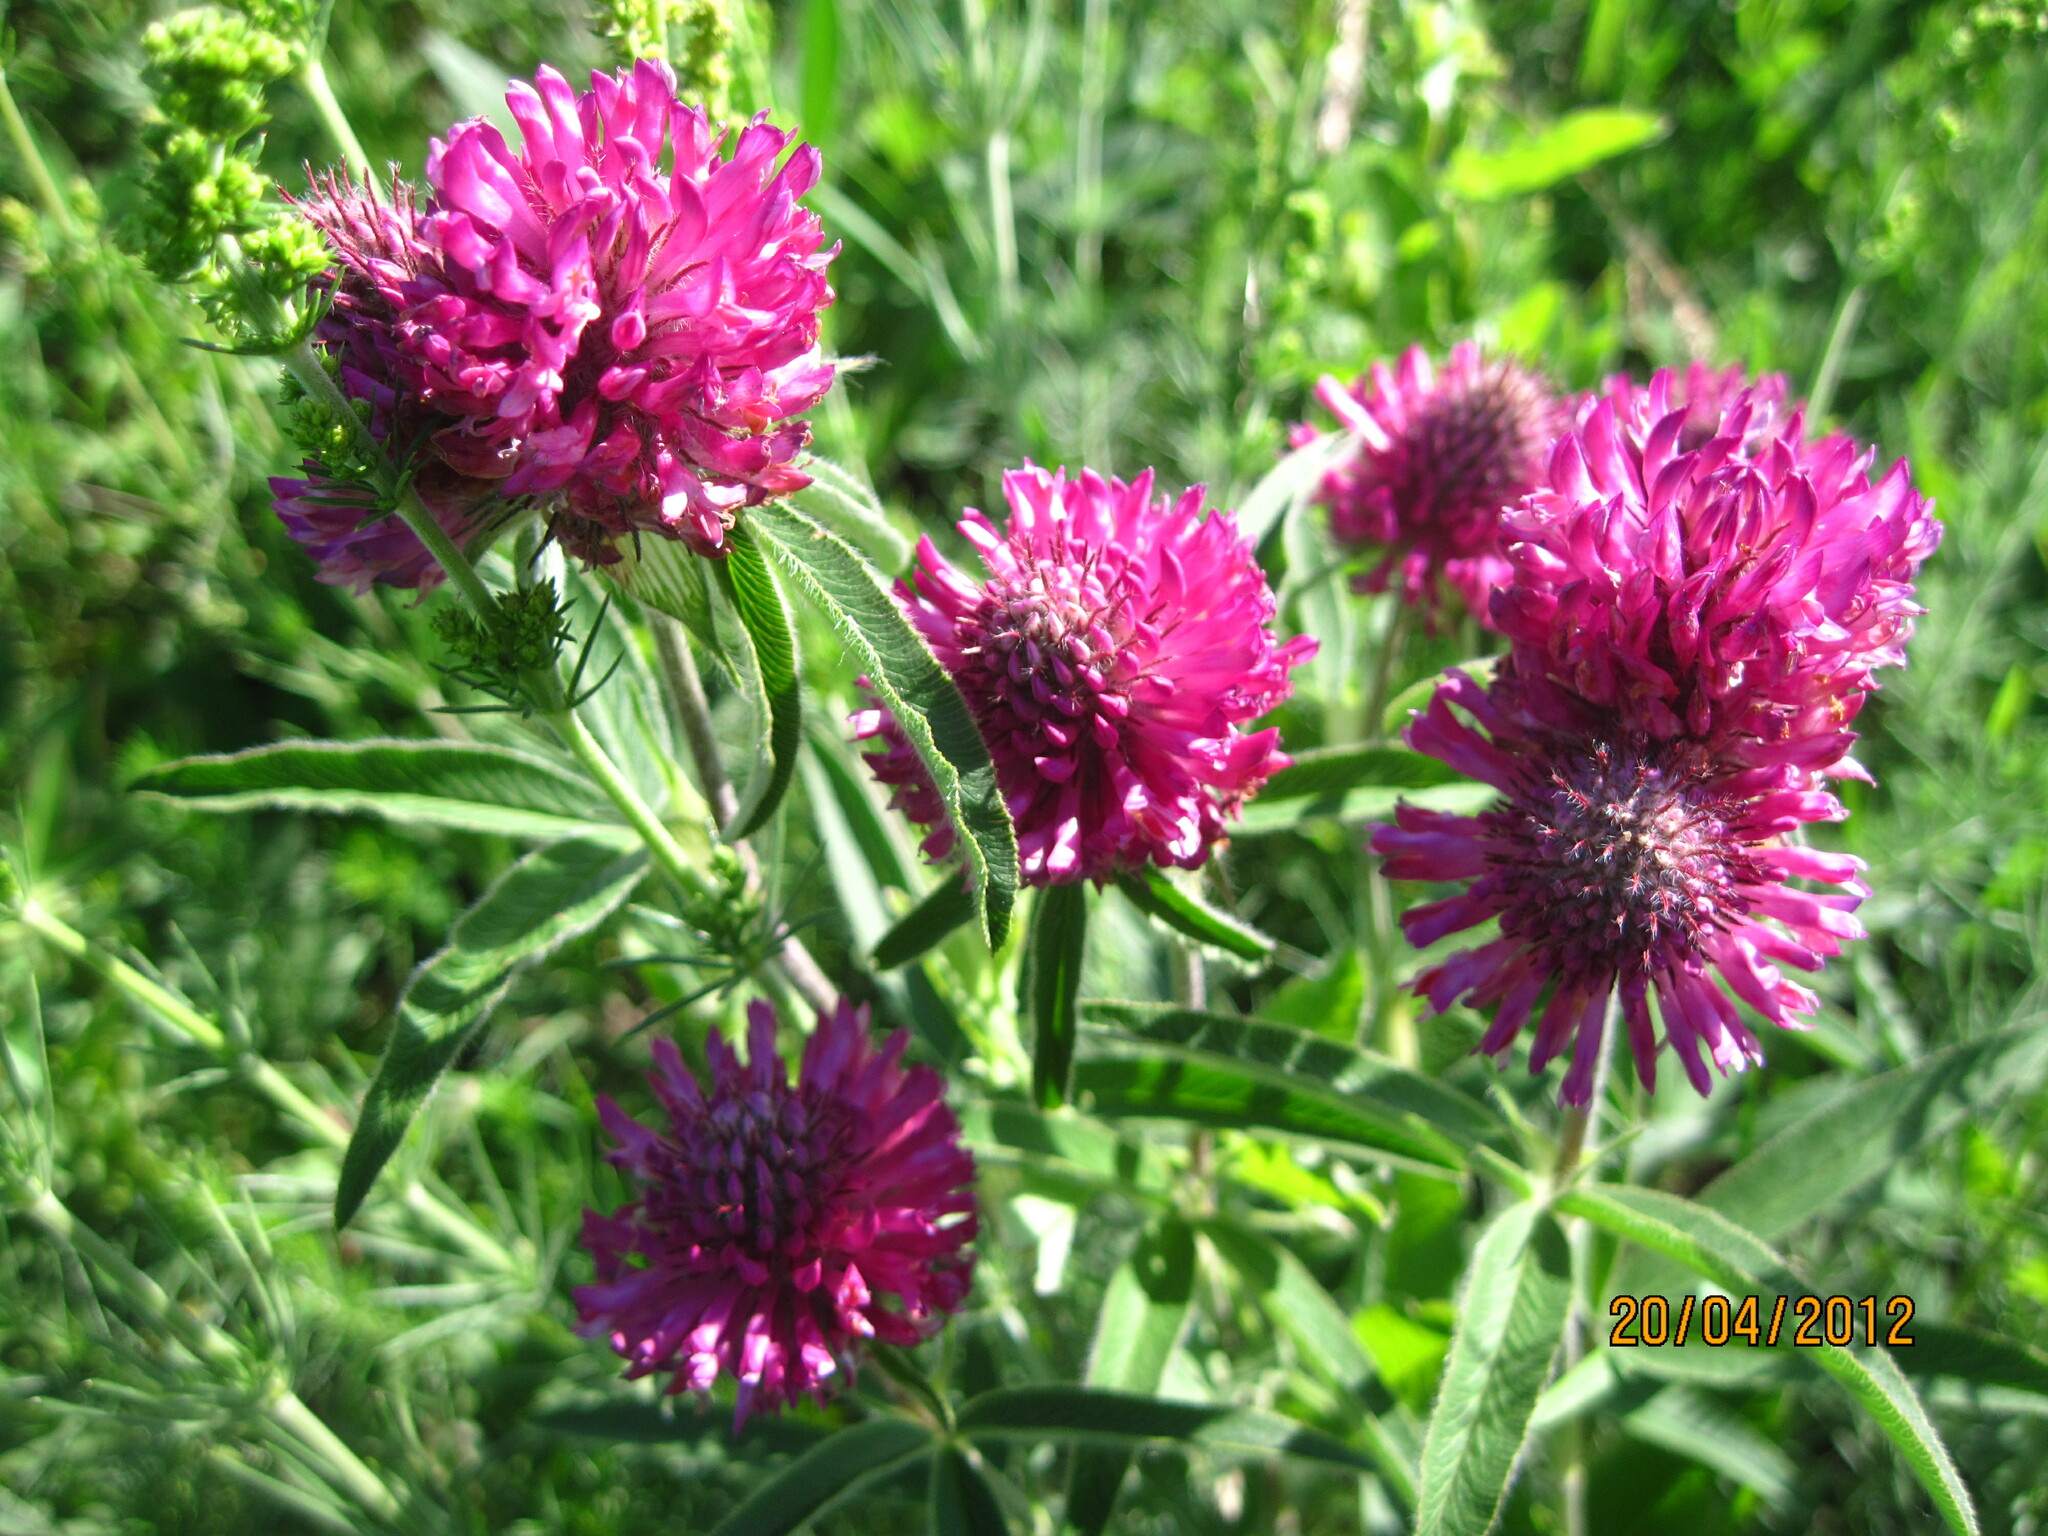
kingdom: Plantae
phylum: Tracheophyta
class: Magnoliopsida
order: Fabales
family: Fabaceae
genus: Trifolium
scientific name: Trifolium alpestre
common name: Owl-head clover
